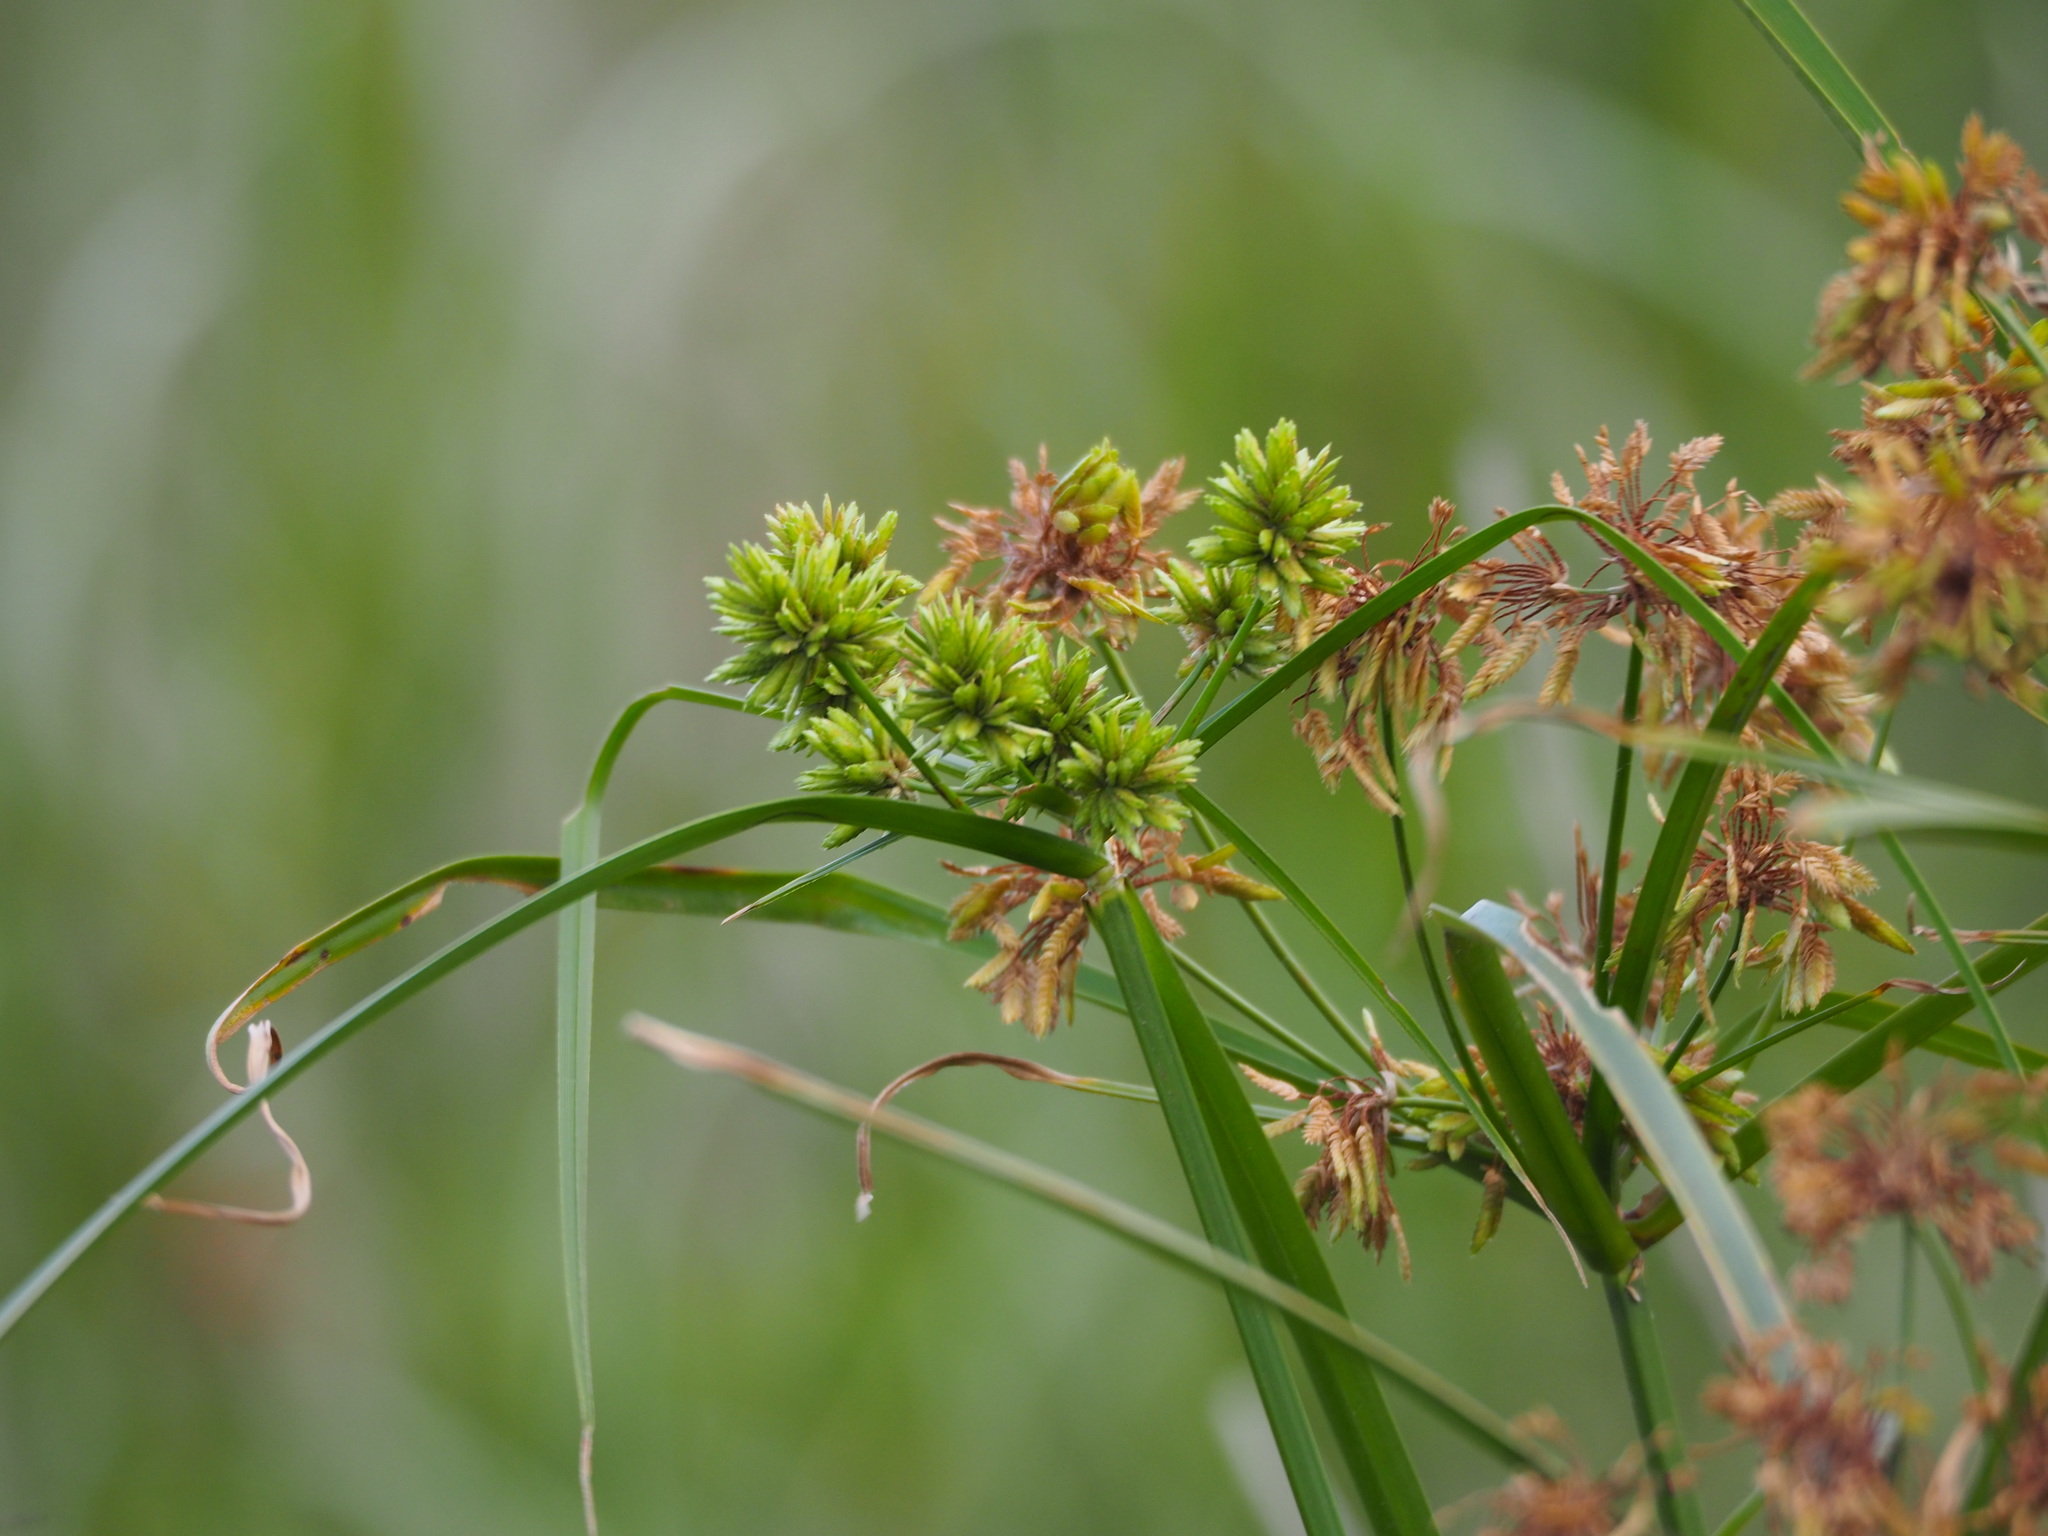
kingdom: Plantae
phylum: Tracheophyta
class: Liliopsida
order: Poales
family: Cyperaceae
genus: Cyperus
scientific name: Cyperus eragrostis
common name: Tall flatsedge
